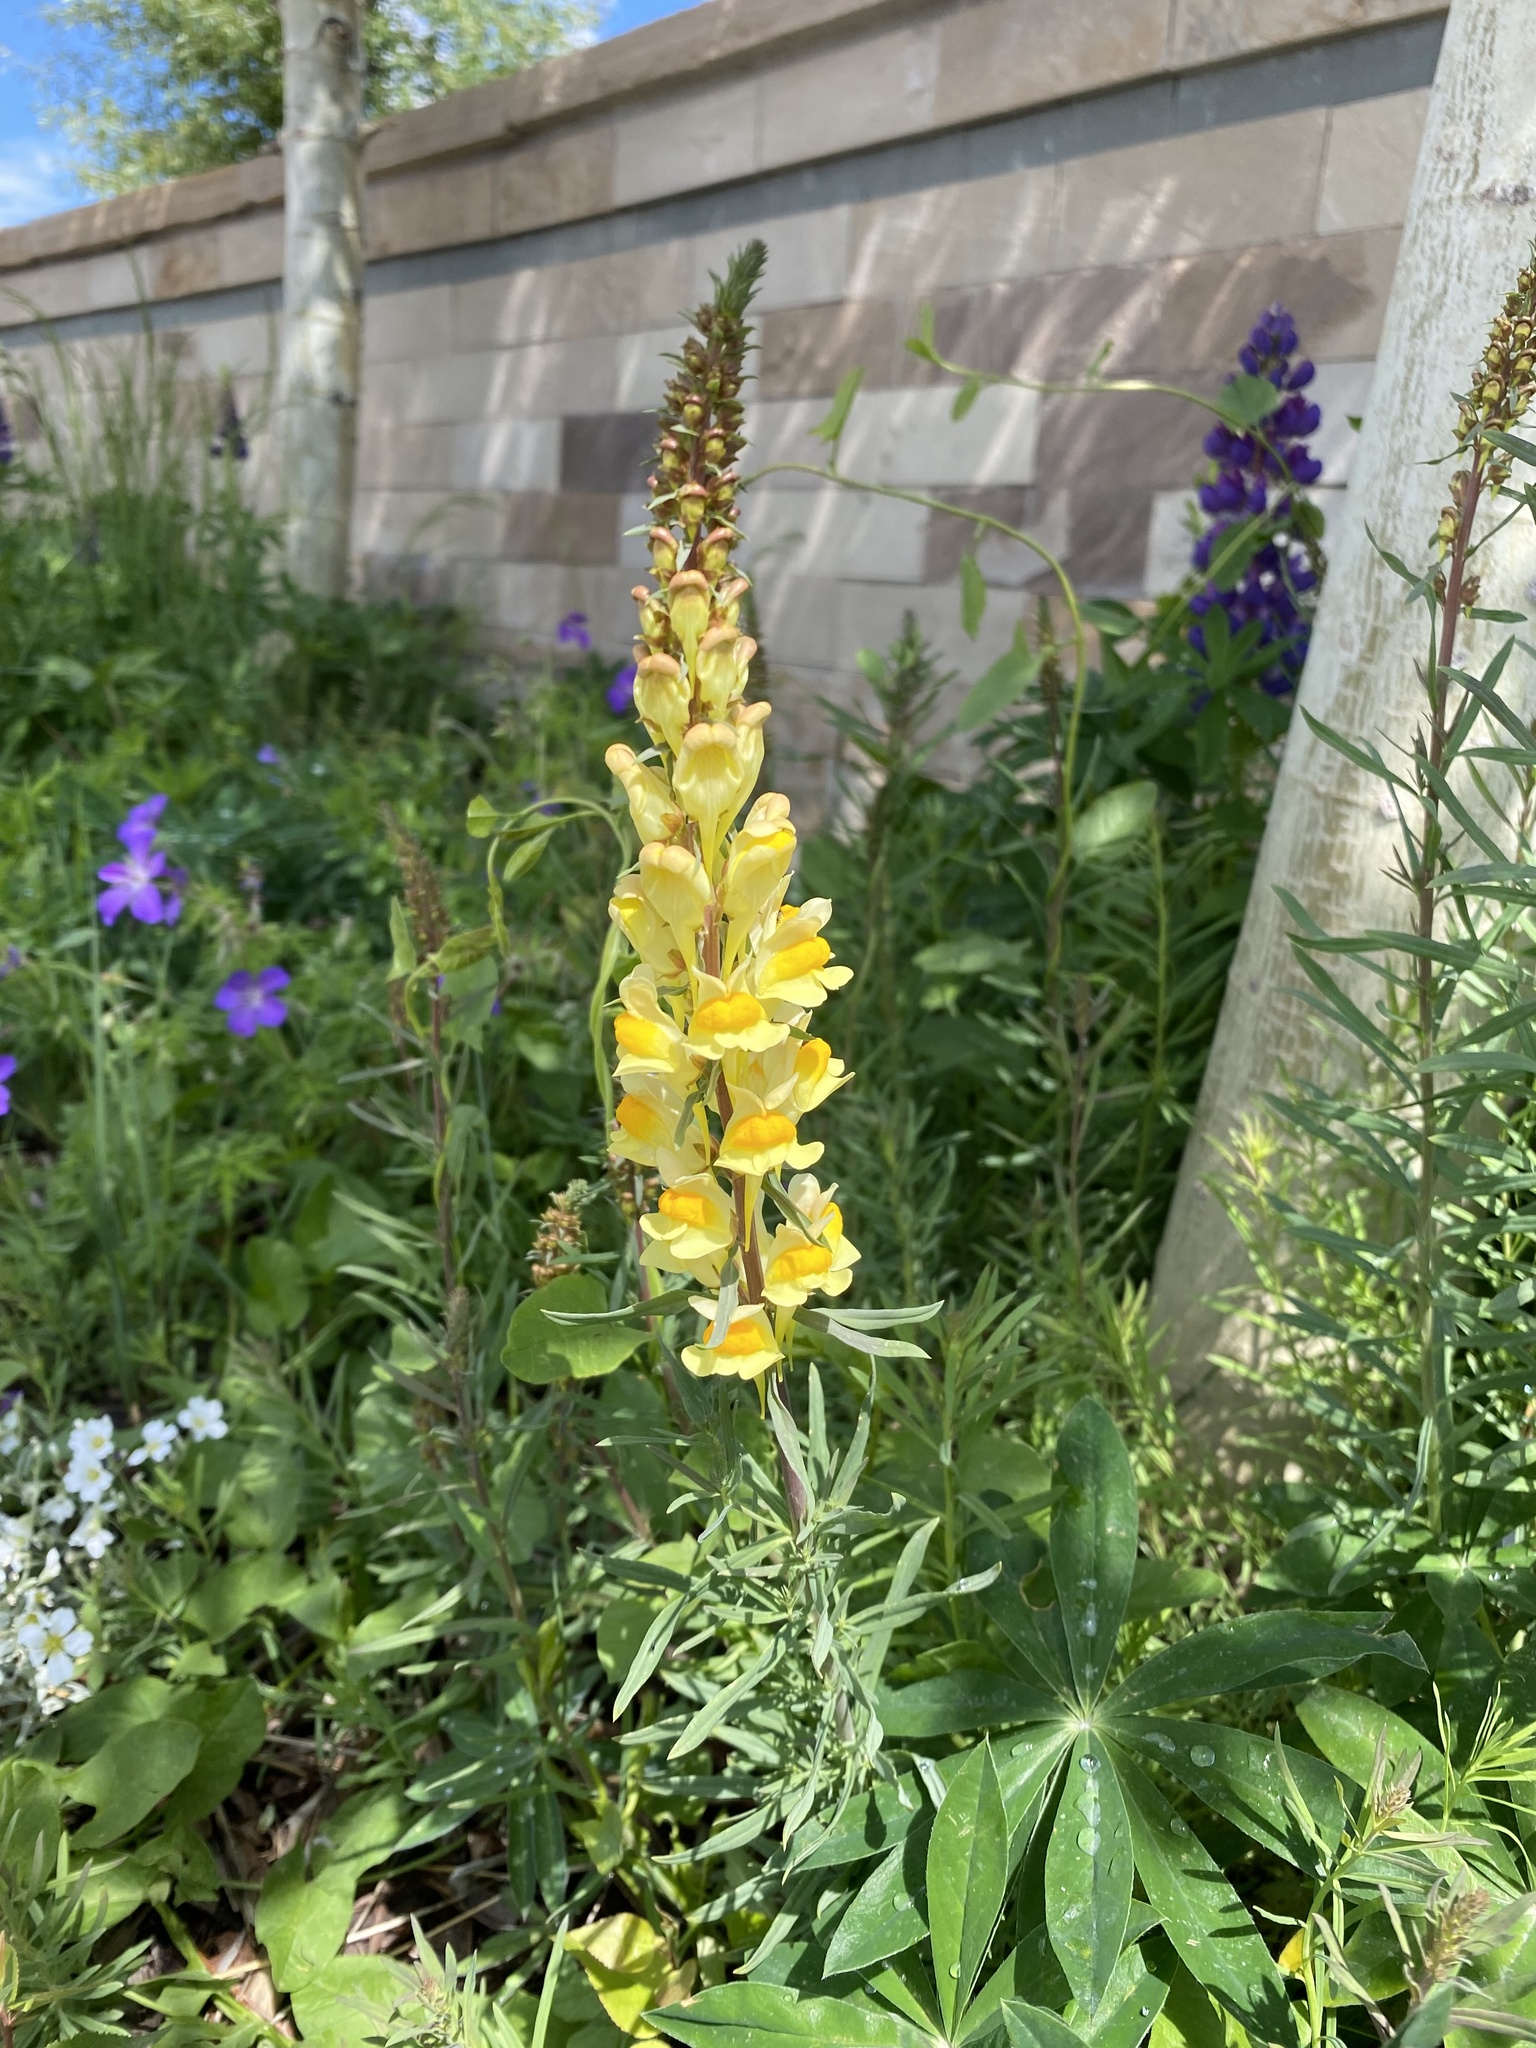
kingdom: Plantae
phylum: Tracheophyta
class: Magnoliopsida
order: Lamiales
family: Plantaginaceae
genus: Linaria
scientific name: Linaria vulgaris
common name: Butter and eggs
